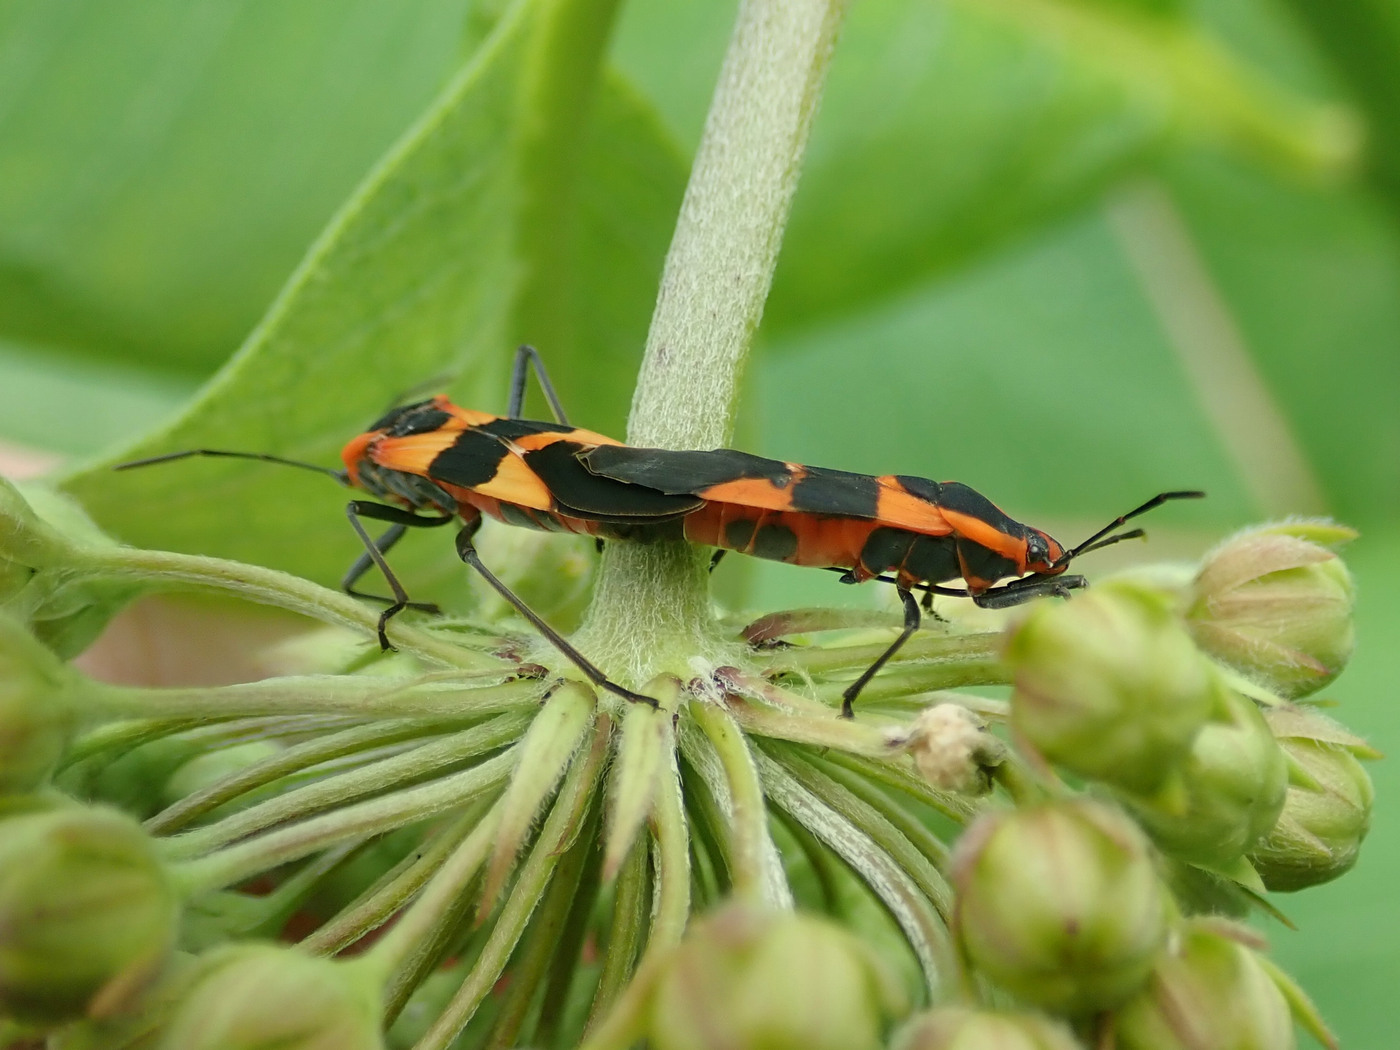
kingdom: Animalia
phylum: Arthropoda
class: Insecta
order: Hemiptera
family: Lygaeidae
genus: Oncopeltus
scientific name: Oncopeltus fasciatus
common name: Large milkweed bug
